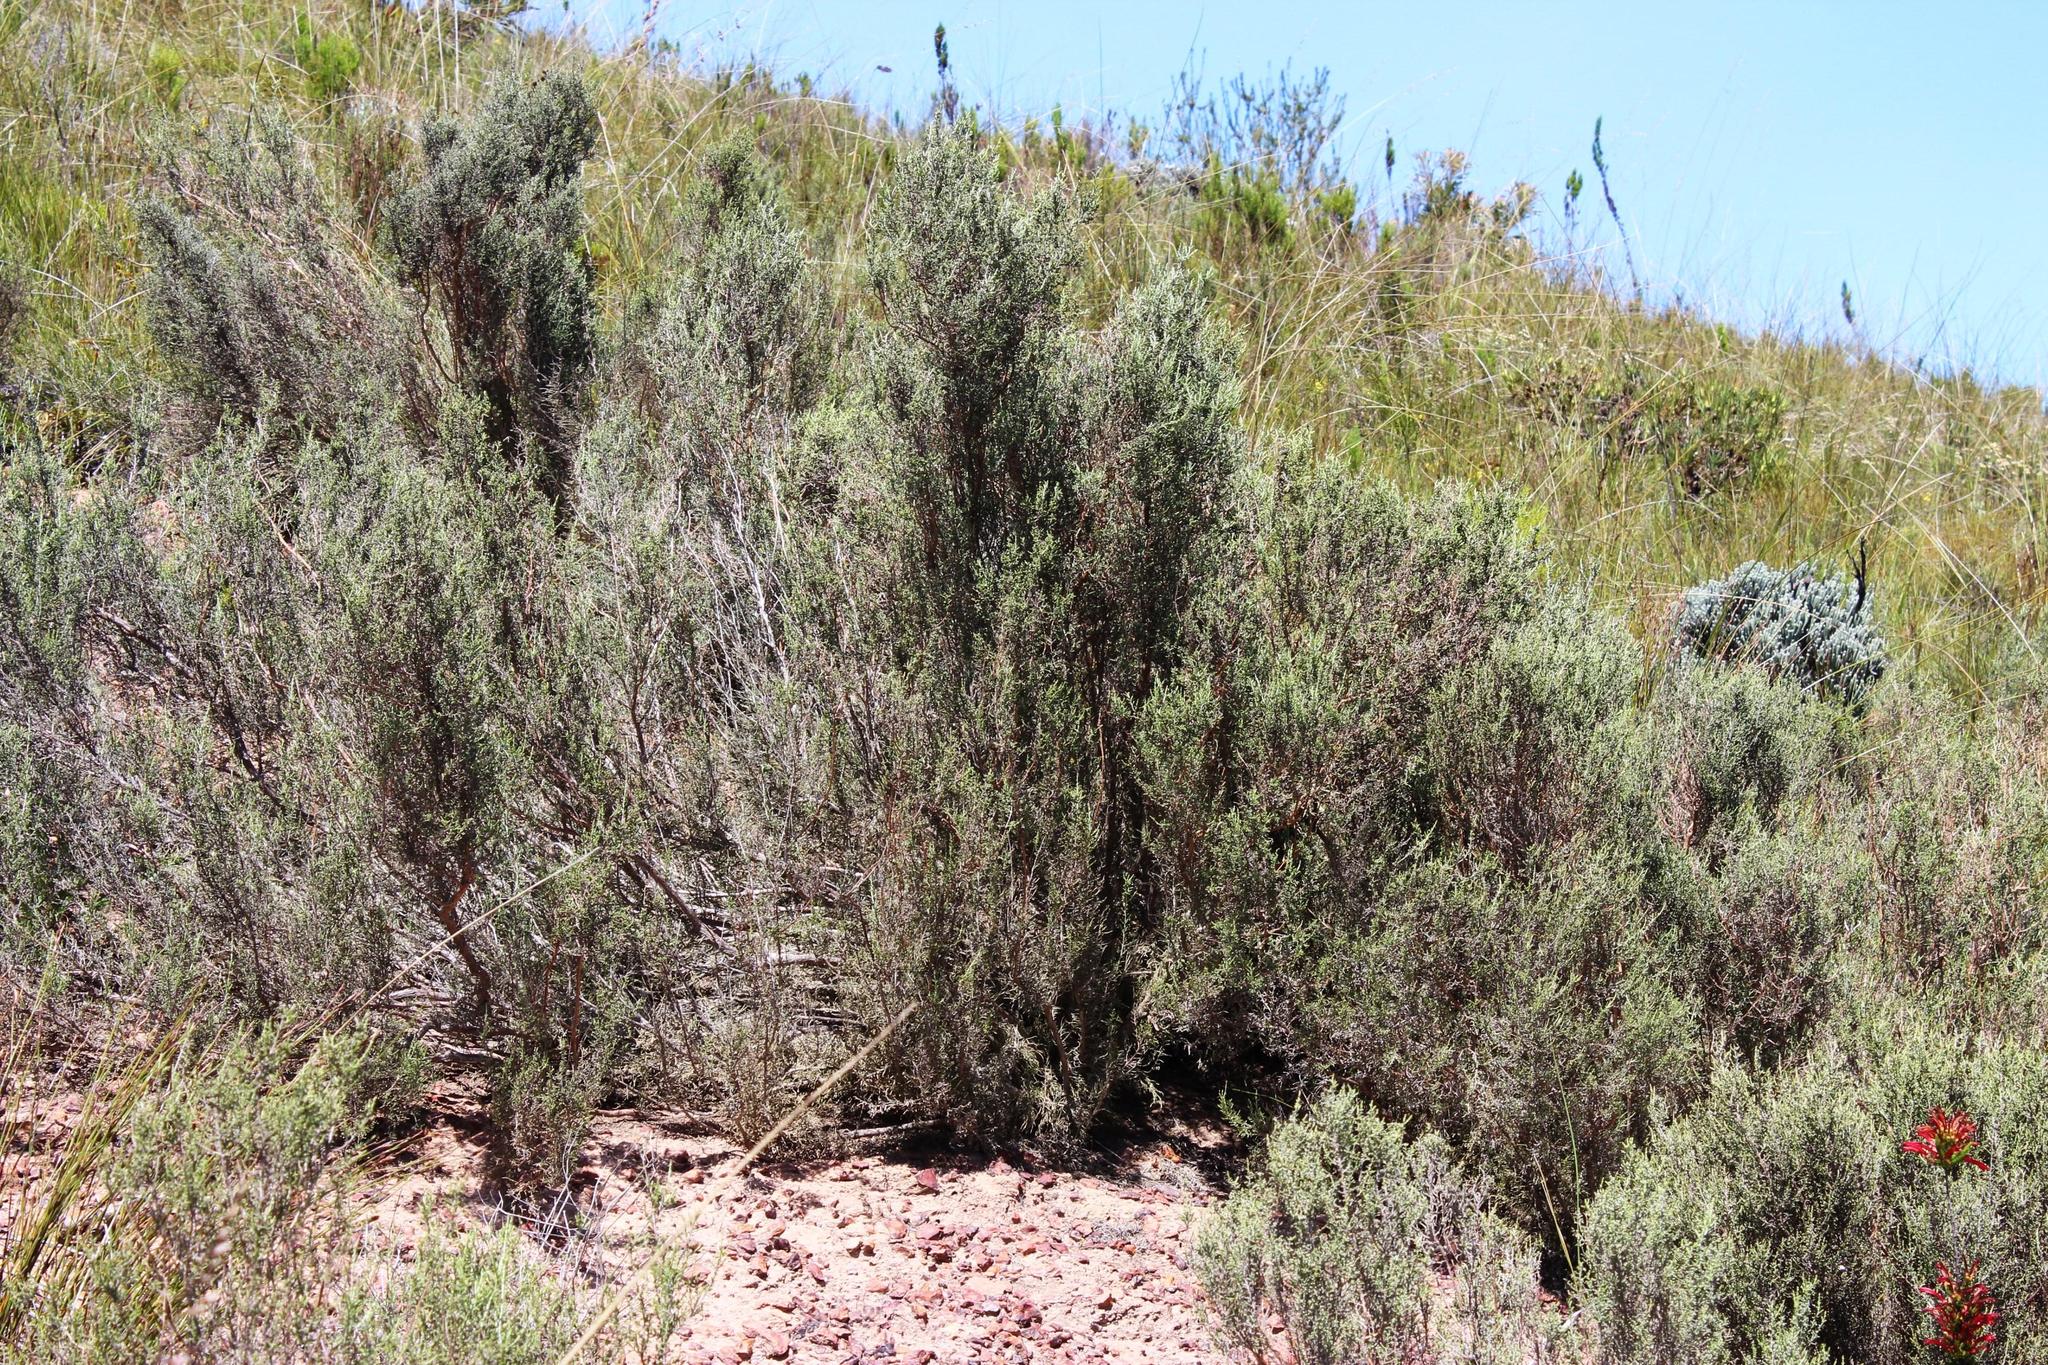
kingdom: Plantae
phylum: Tracheophyta
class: Magnoliopsida
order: Asterales
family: Asteraceae
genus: Dicerothamnus
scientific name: Dicerothamnus rhinocerotis
